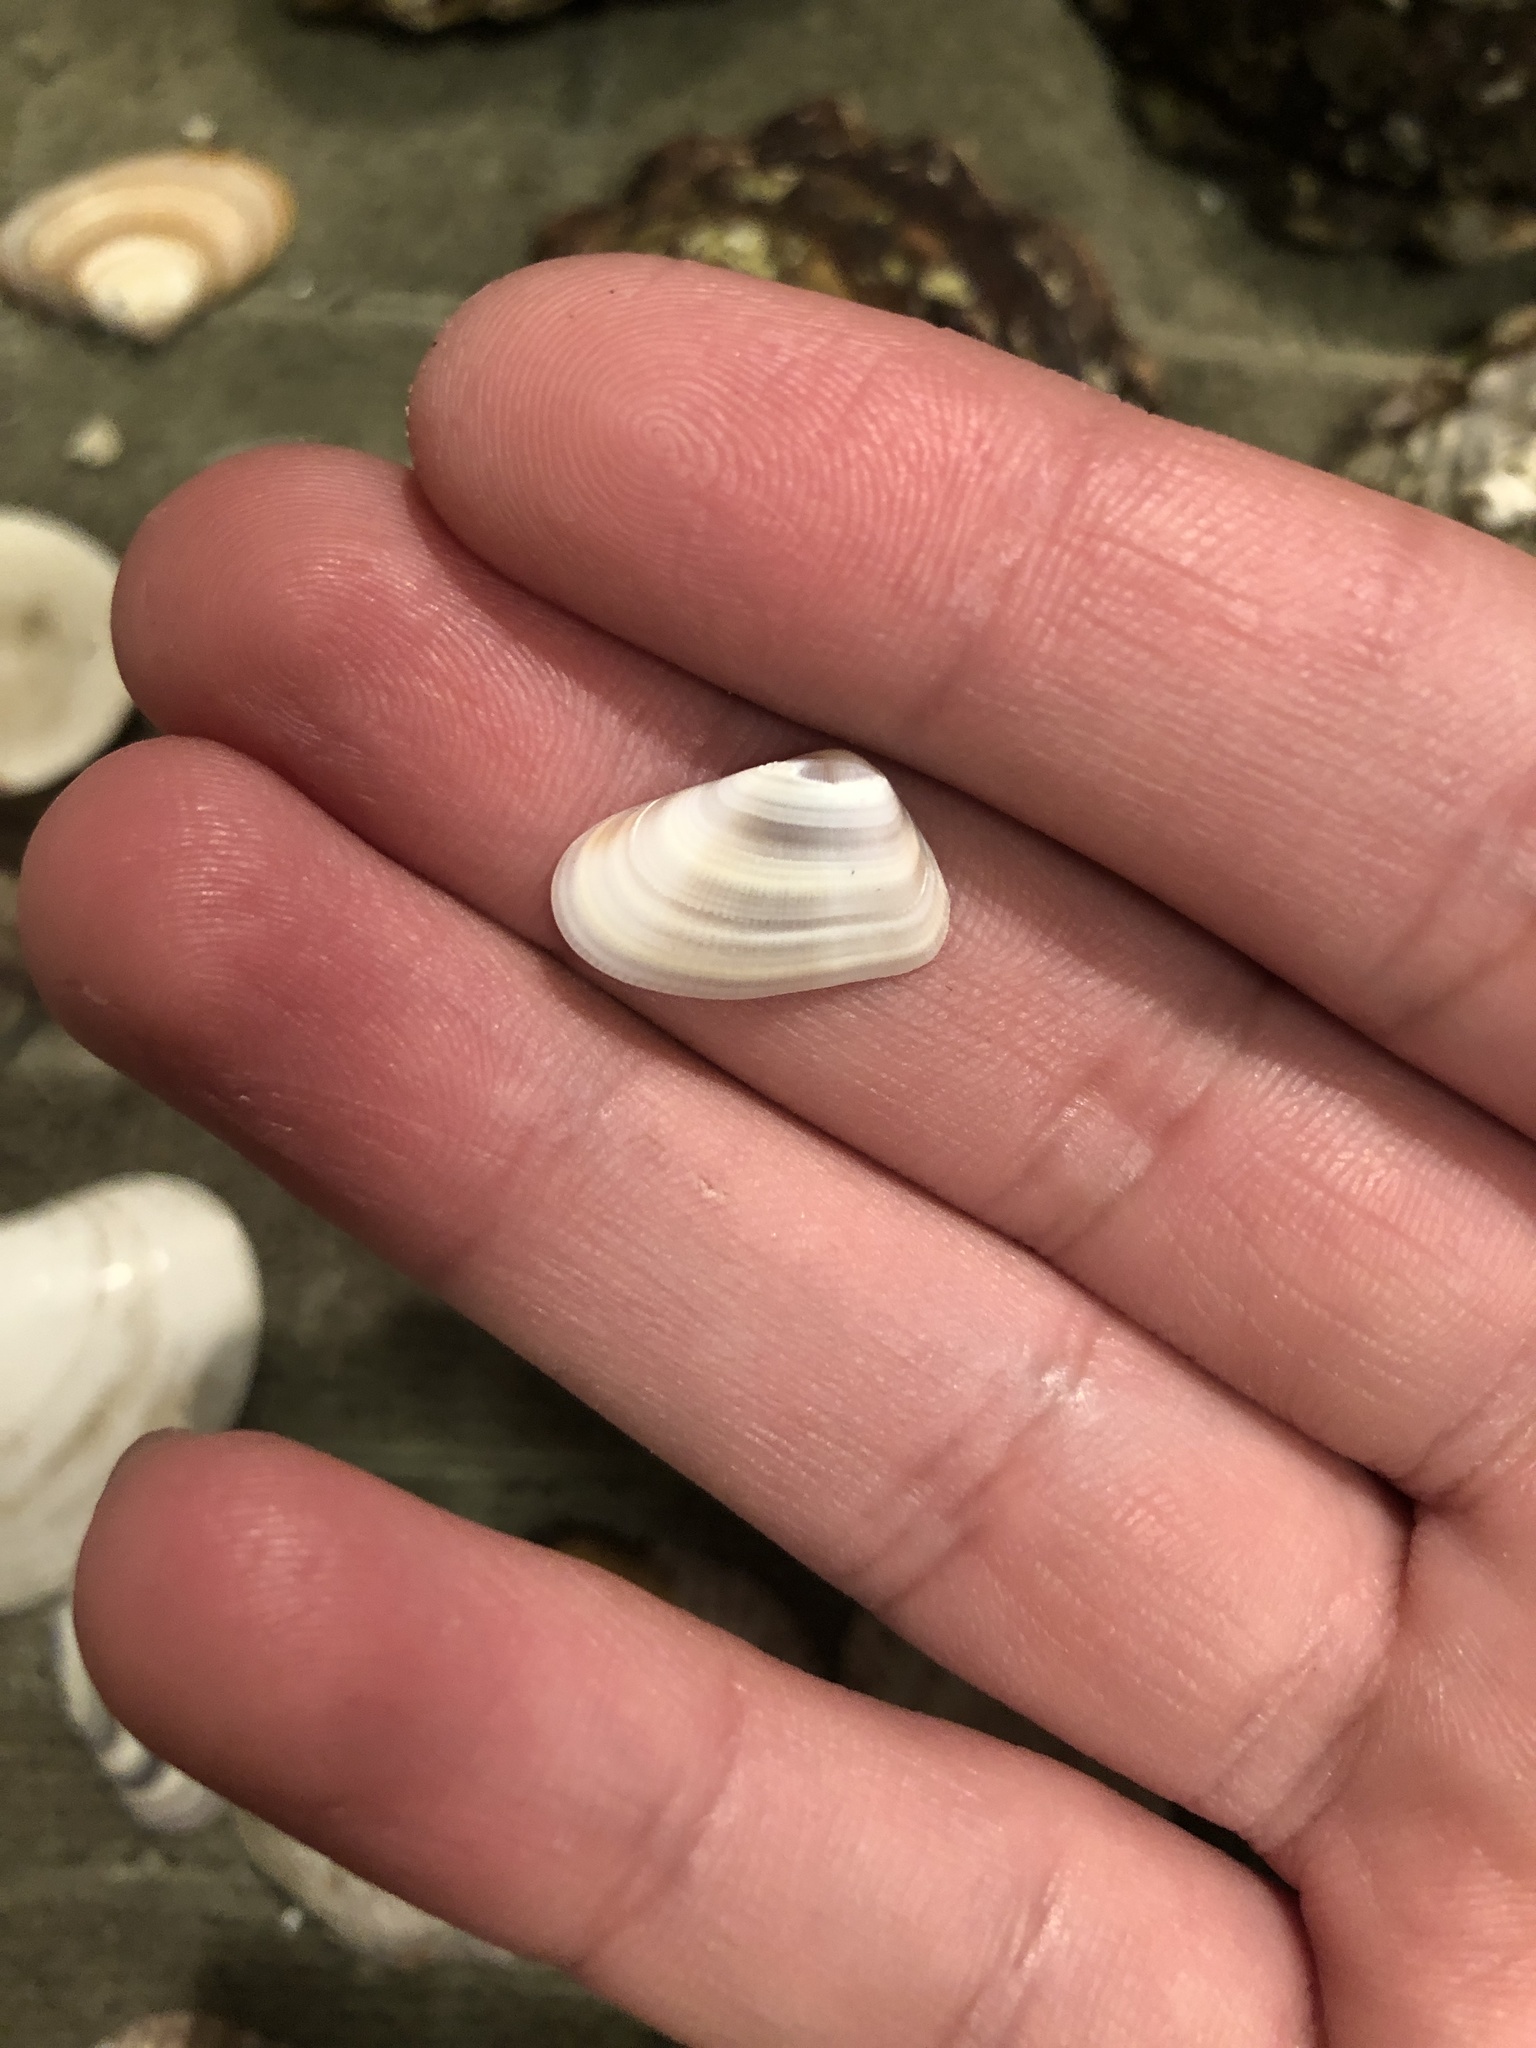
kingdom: Animalia
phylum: Mollusca
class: Bivalvia
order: Cardiida
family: Donacidae
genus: Donax
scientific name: Donax gouldii
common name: Gould beanclam
